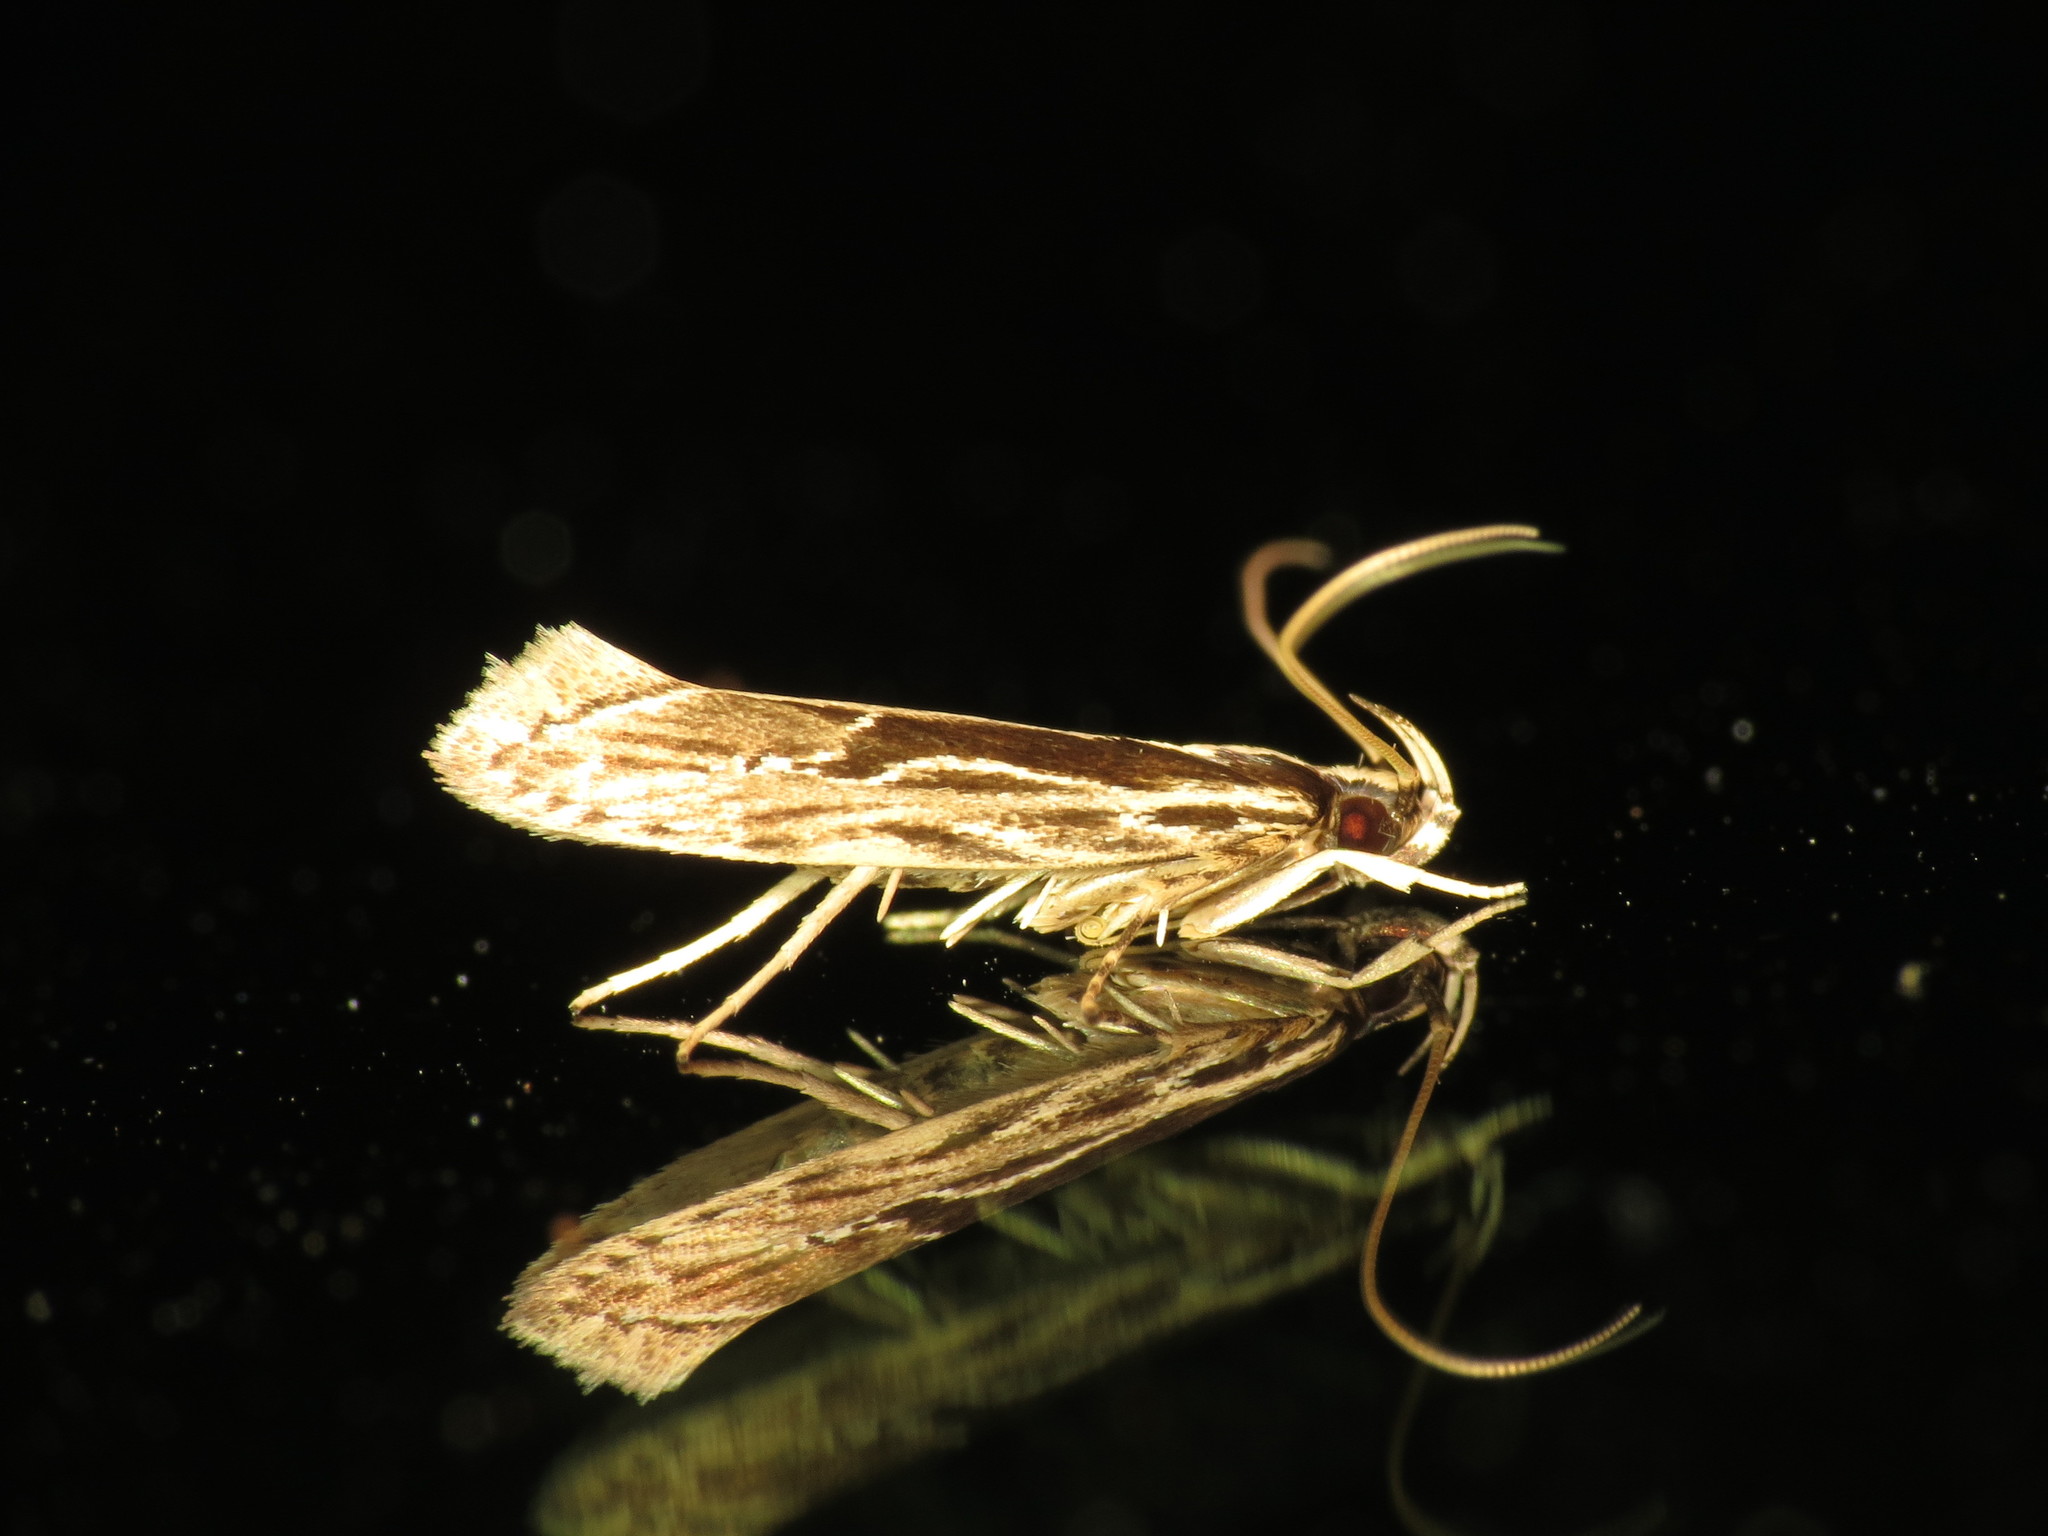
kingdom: Animalia
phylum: Arthropoda
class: Insecta
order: Lepidoptera
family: Cosmopterigidae
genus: Hyposmochoma
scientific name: Hyposmochoma fractistriata
